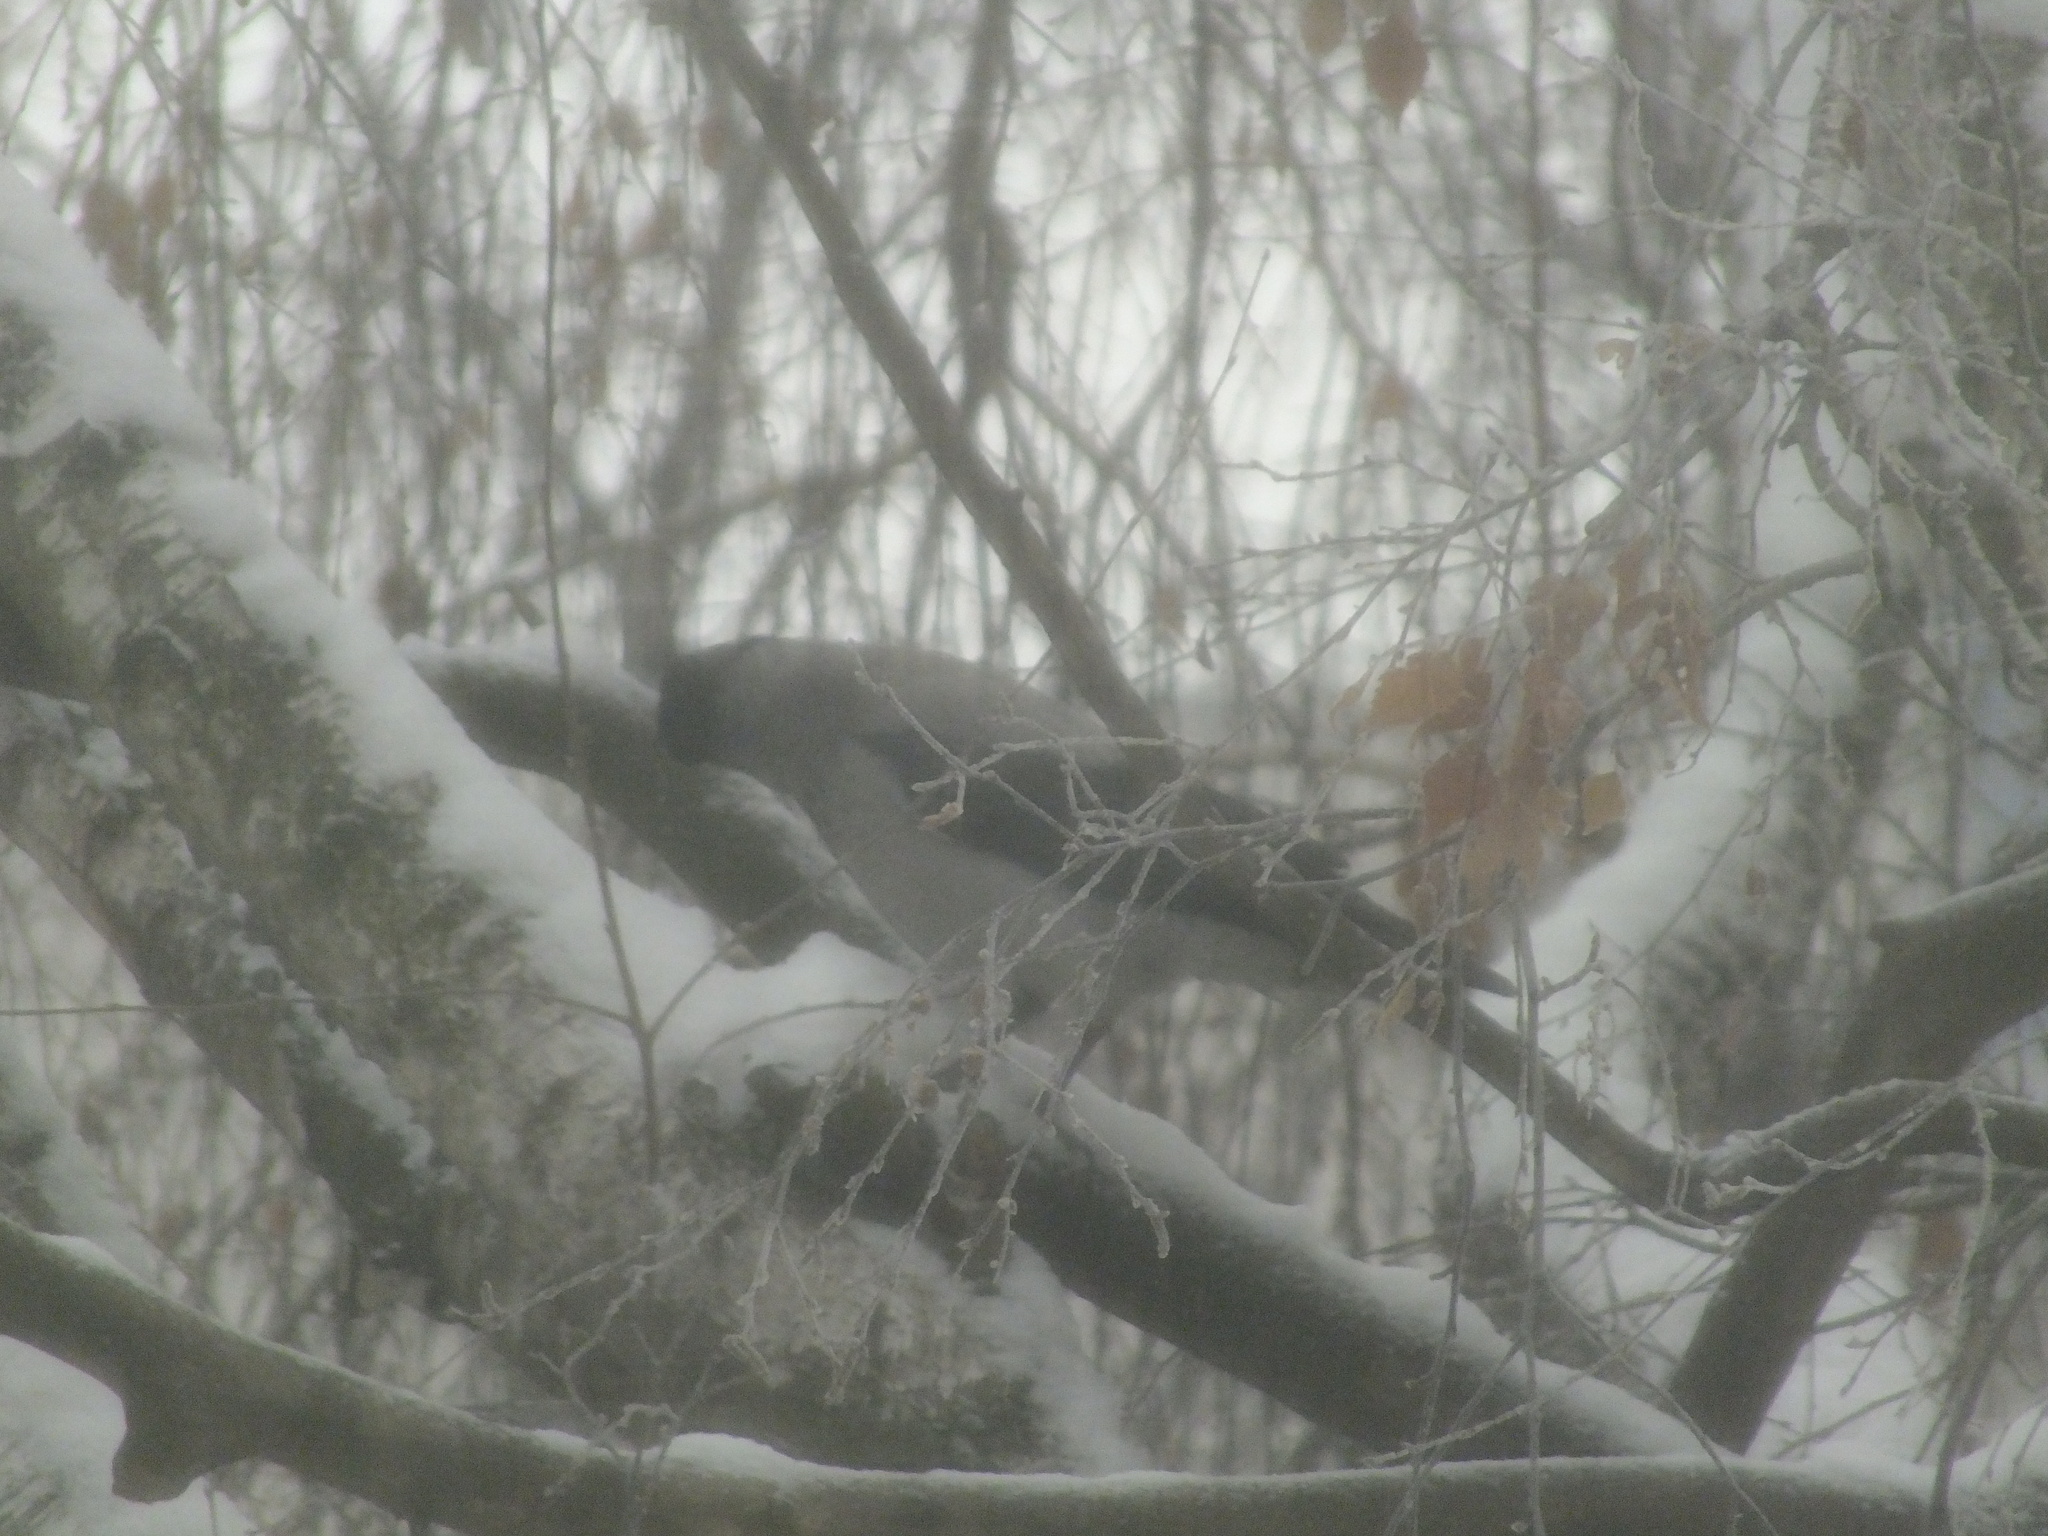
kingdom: Animalia
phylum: Chordata
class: Aves
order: Passeriformes
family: Corvidae
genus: Corvus
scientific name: Corvus cornix
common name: Hooded crow
